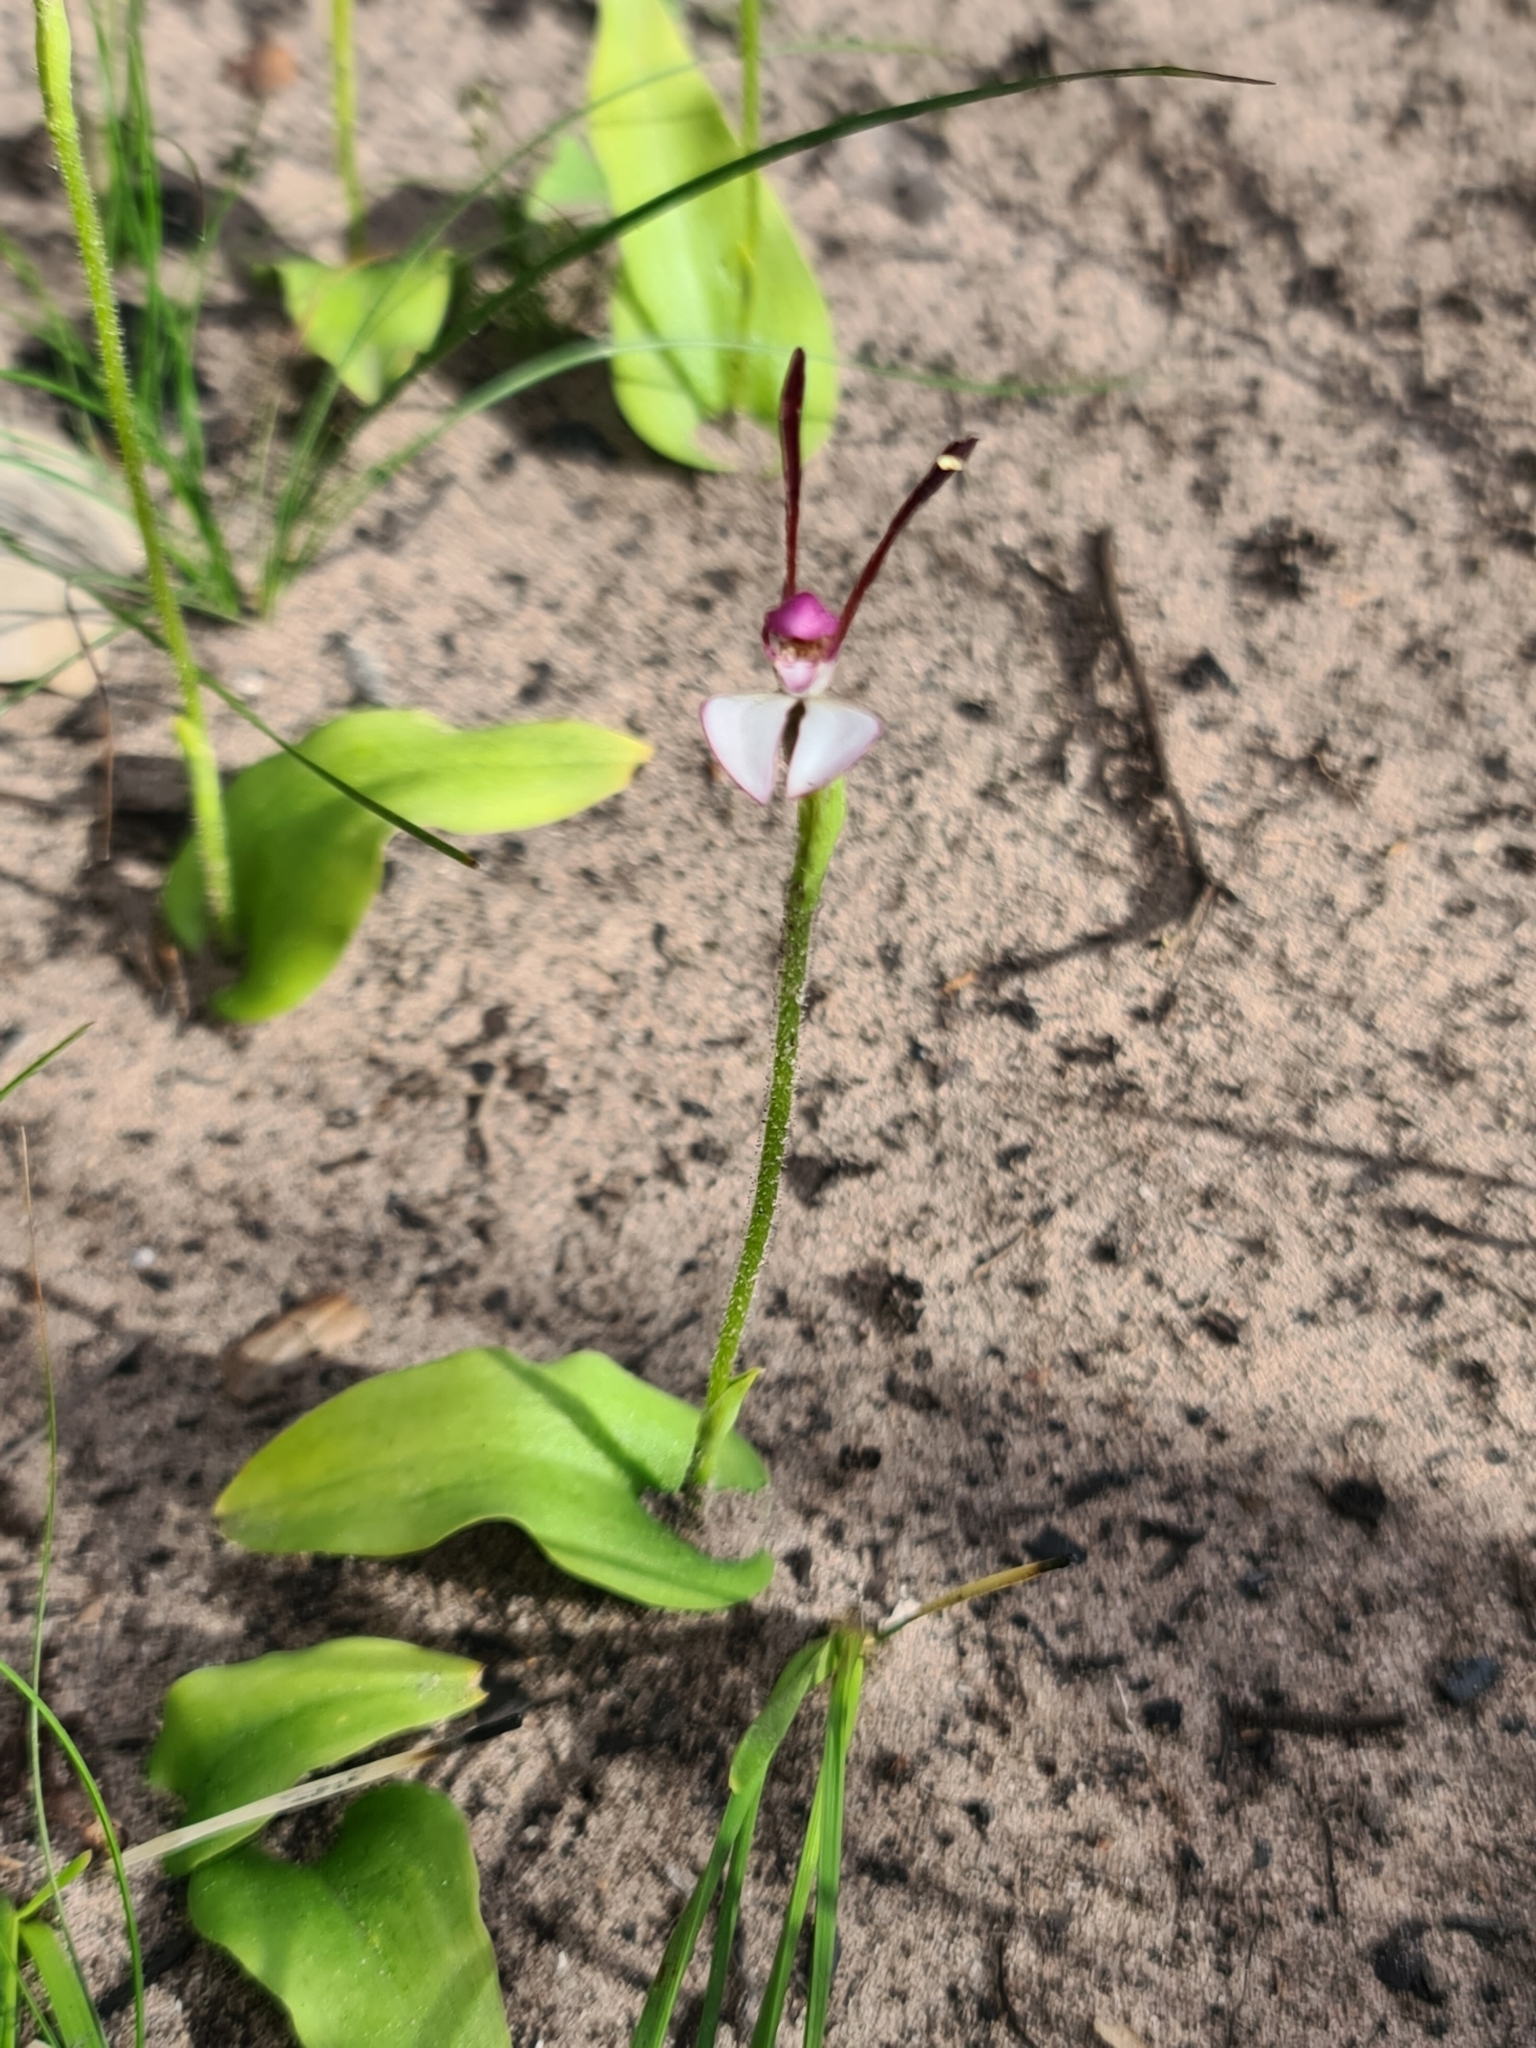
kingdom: Plantae
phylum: Tracheophyta
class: Liliopsida
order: Asparagales
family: Orchidaceae
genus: Leptoceras
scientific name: Leptoceras menziesii
